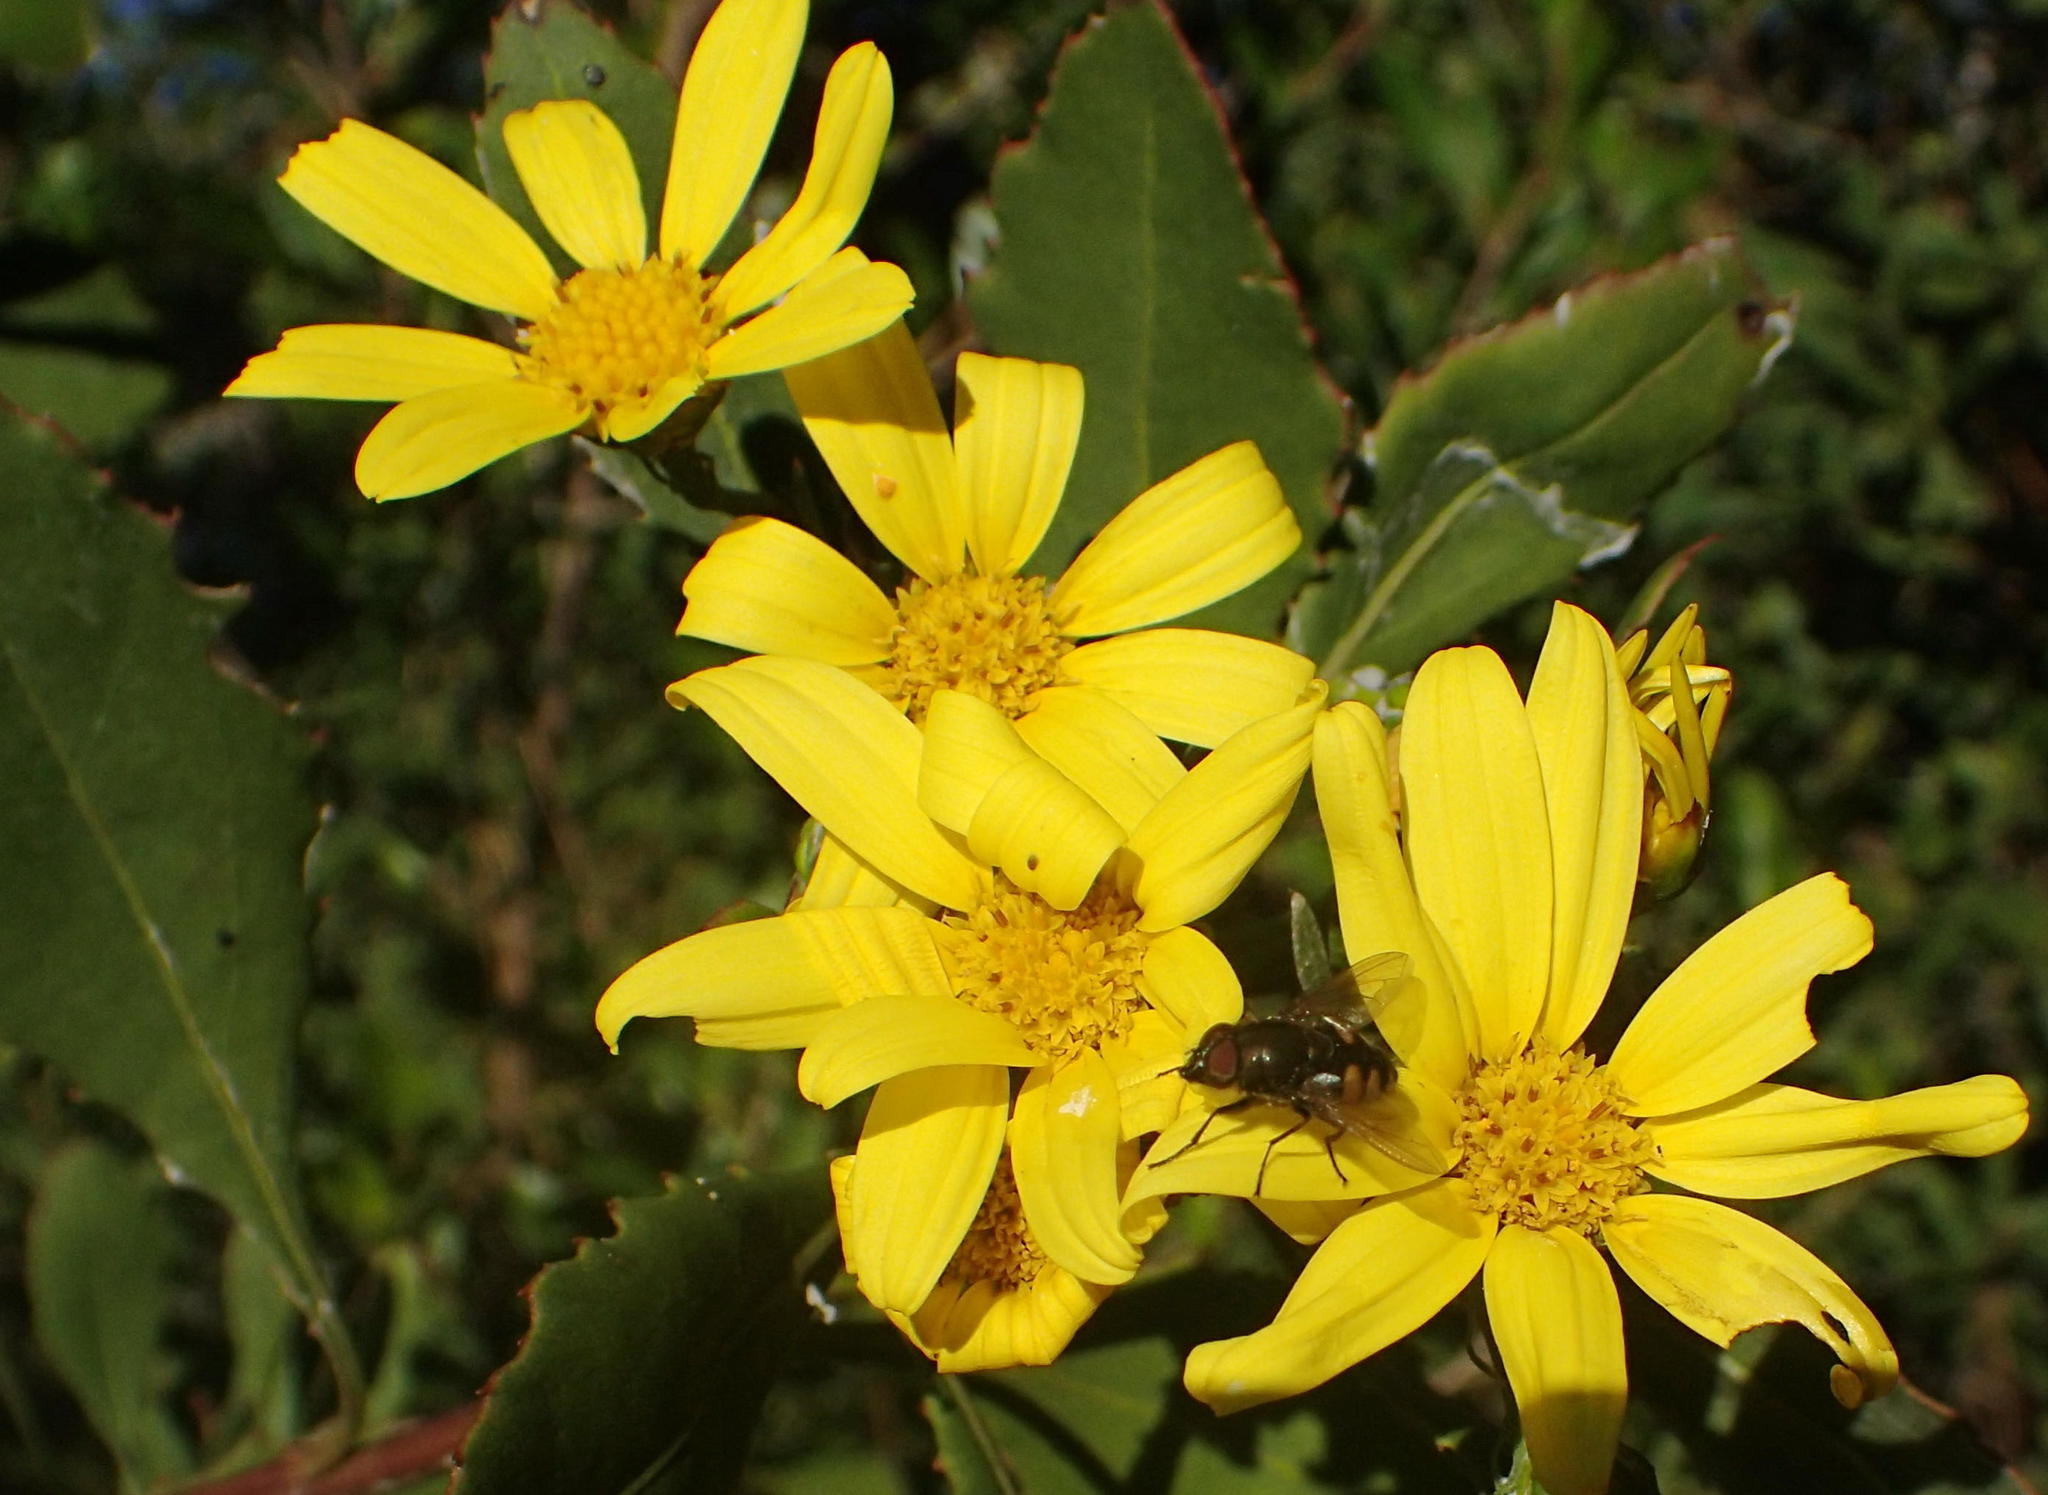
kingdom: Plantae
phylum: Tracheophyta
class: Magnoliopsida
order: Asterales
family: Asteraceae
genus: Osteospermum
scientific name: Osteospermum moniliferum
